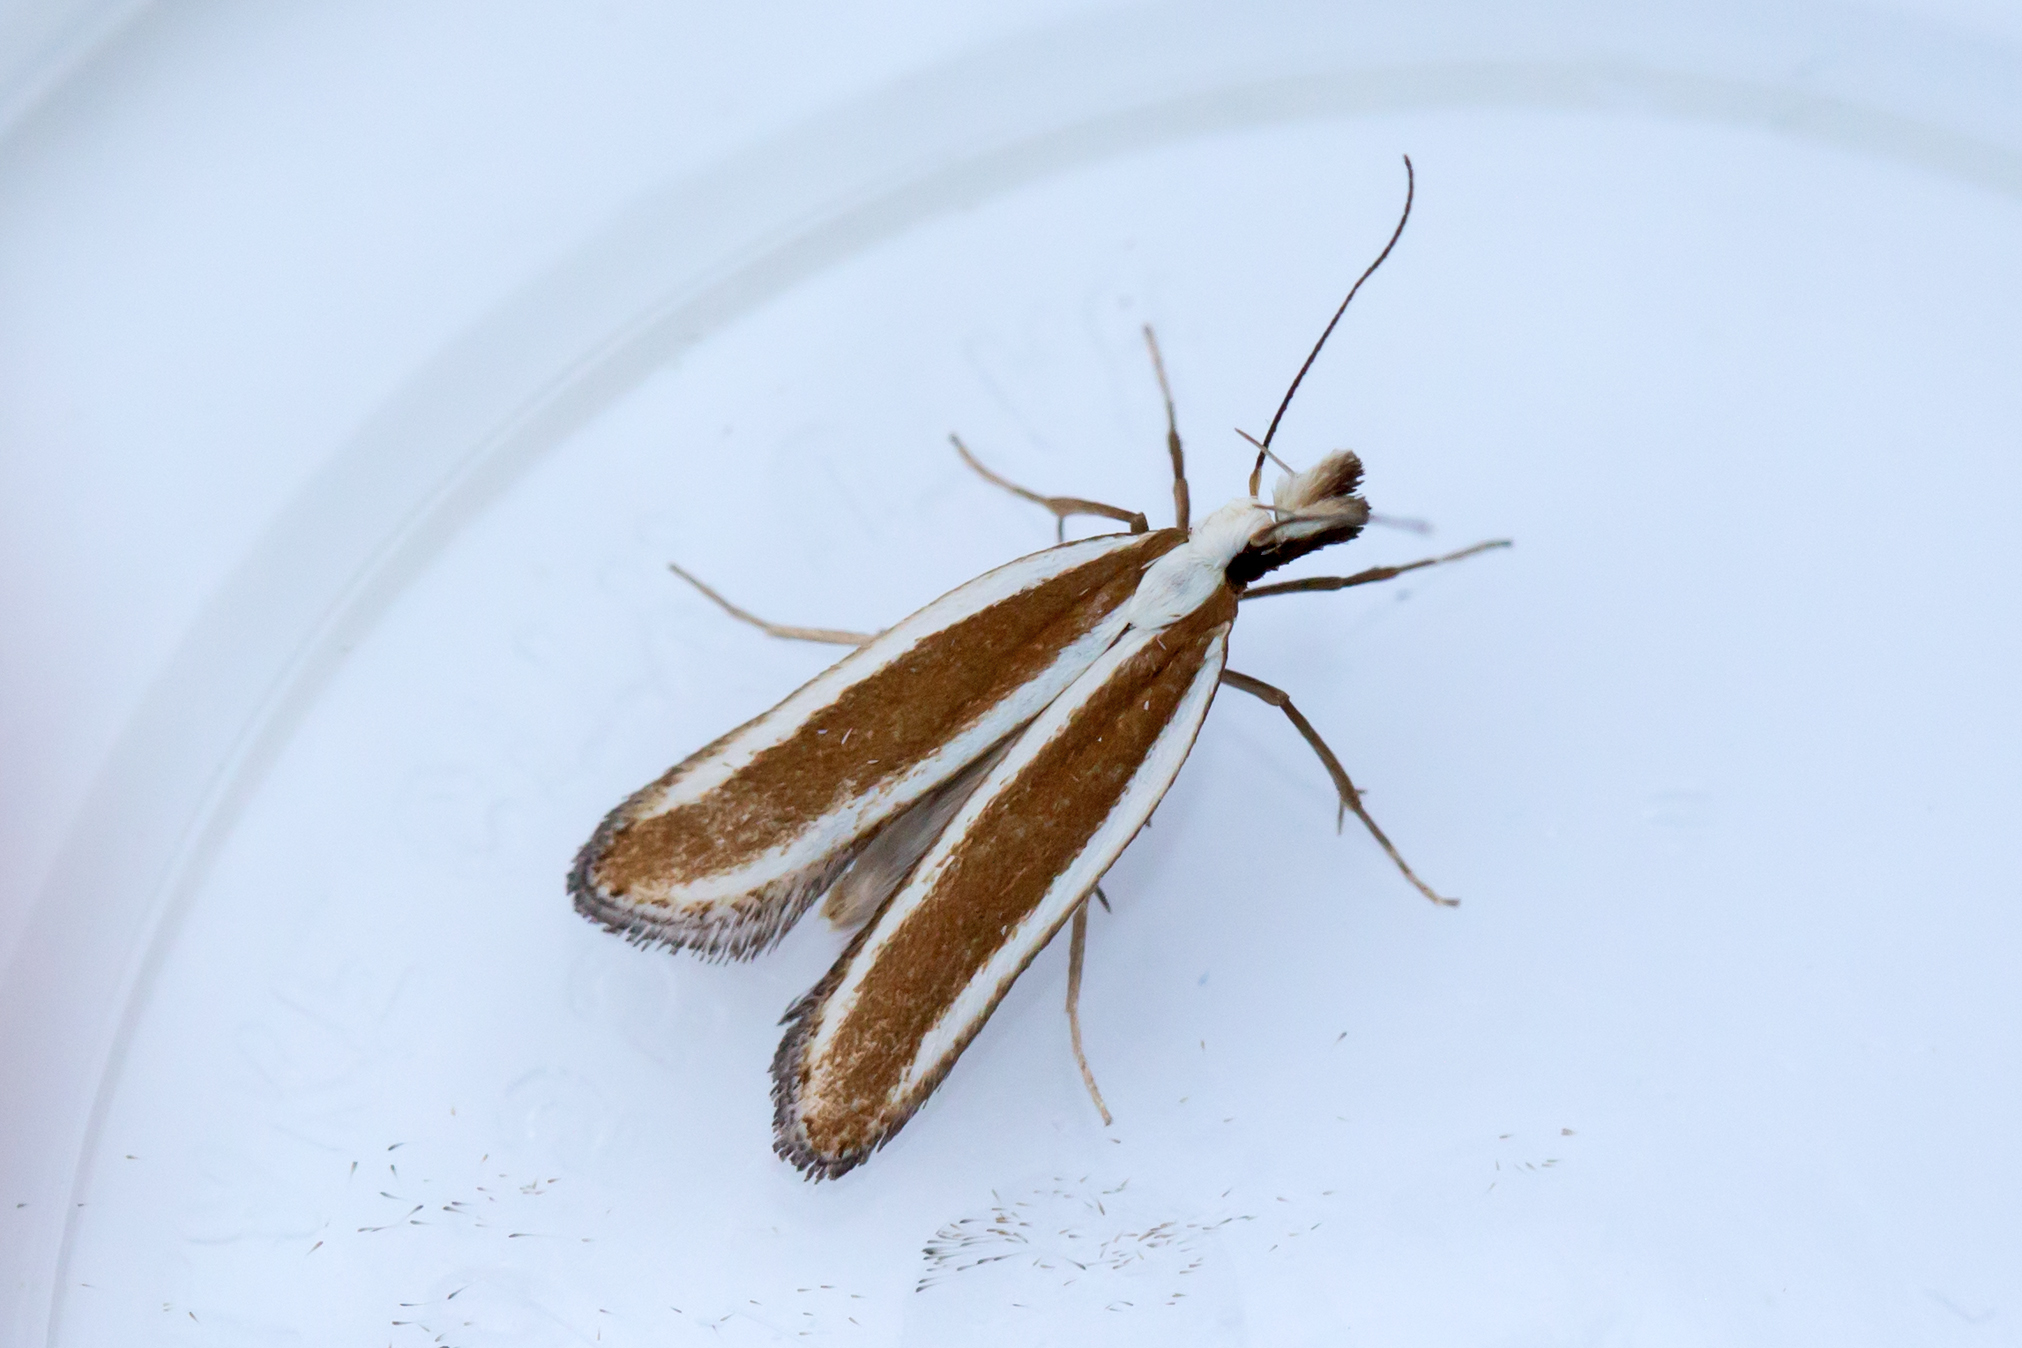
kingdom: Animalia
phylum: Arthropoda
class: Insecta
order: Lepidoptera
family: Gelechiidae
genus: Dichomeris
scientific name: Dichomeris marginella
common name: Juniper webworm
